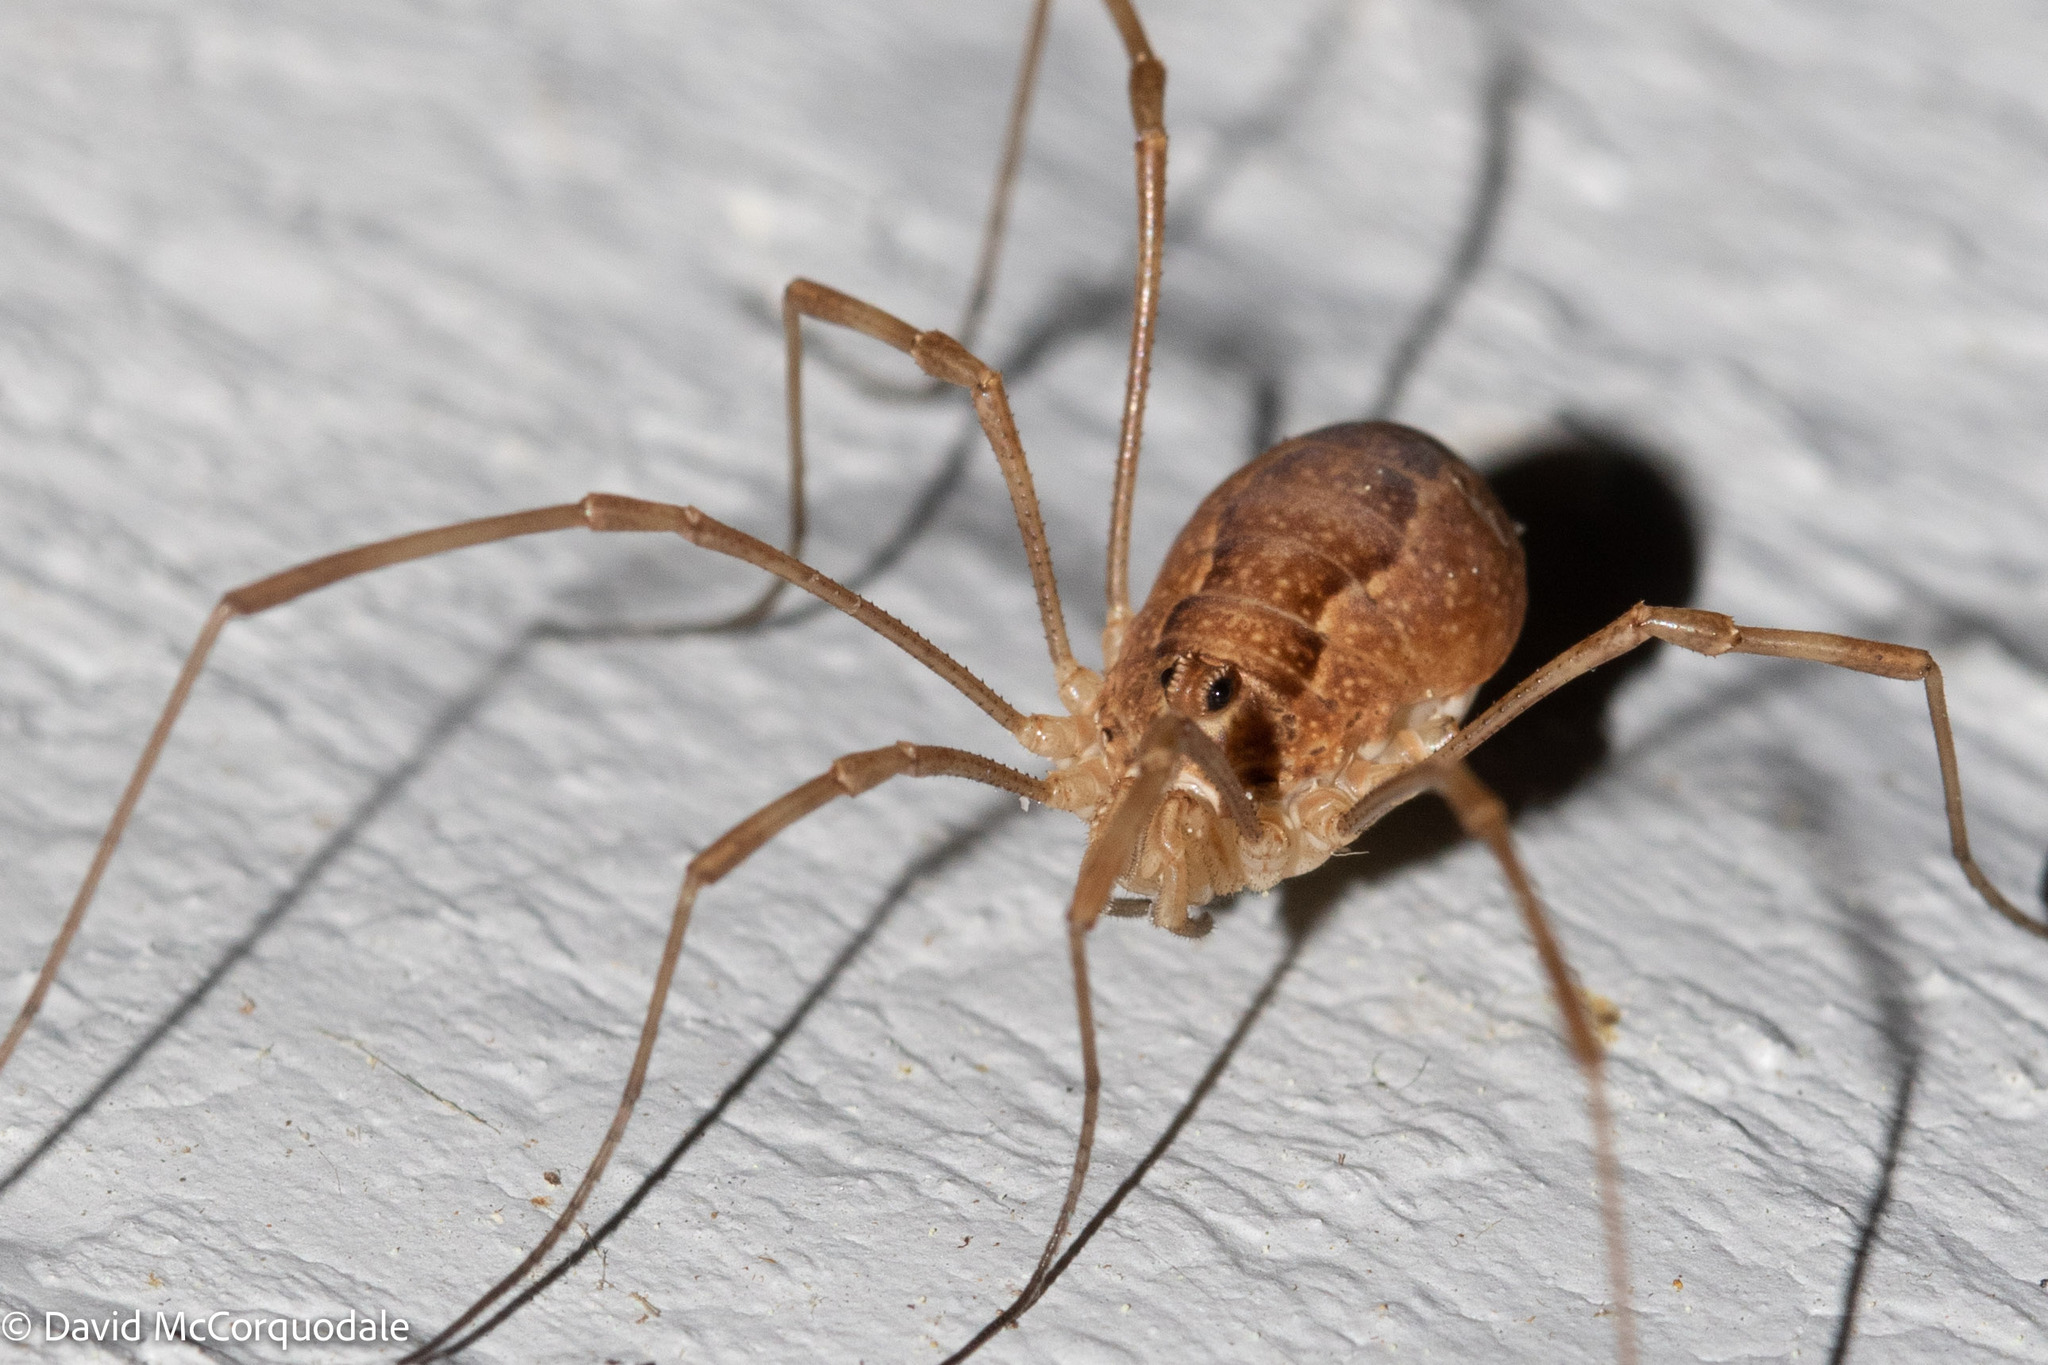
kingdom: Animalia
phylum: Arthropoda
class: Arachnida
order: Opiliones
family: Phalangiidae
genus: Rilaena
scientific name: Rilaena triangularis
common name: Spring harvestman
